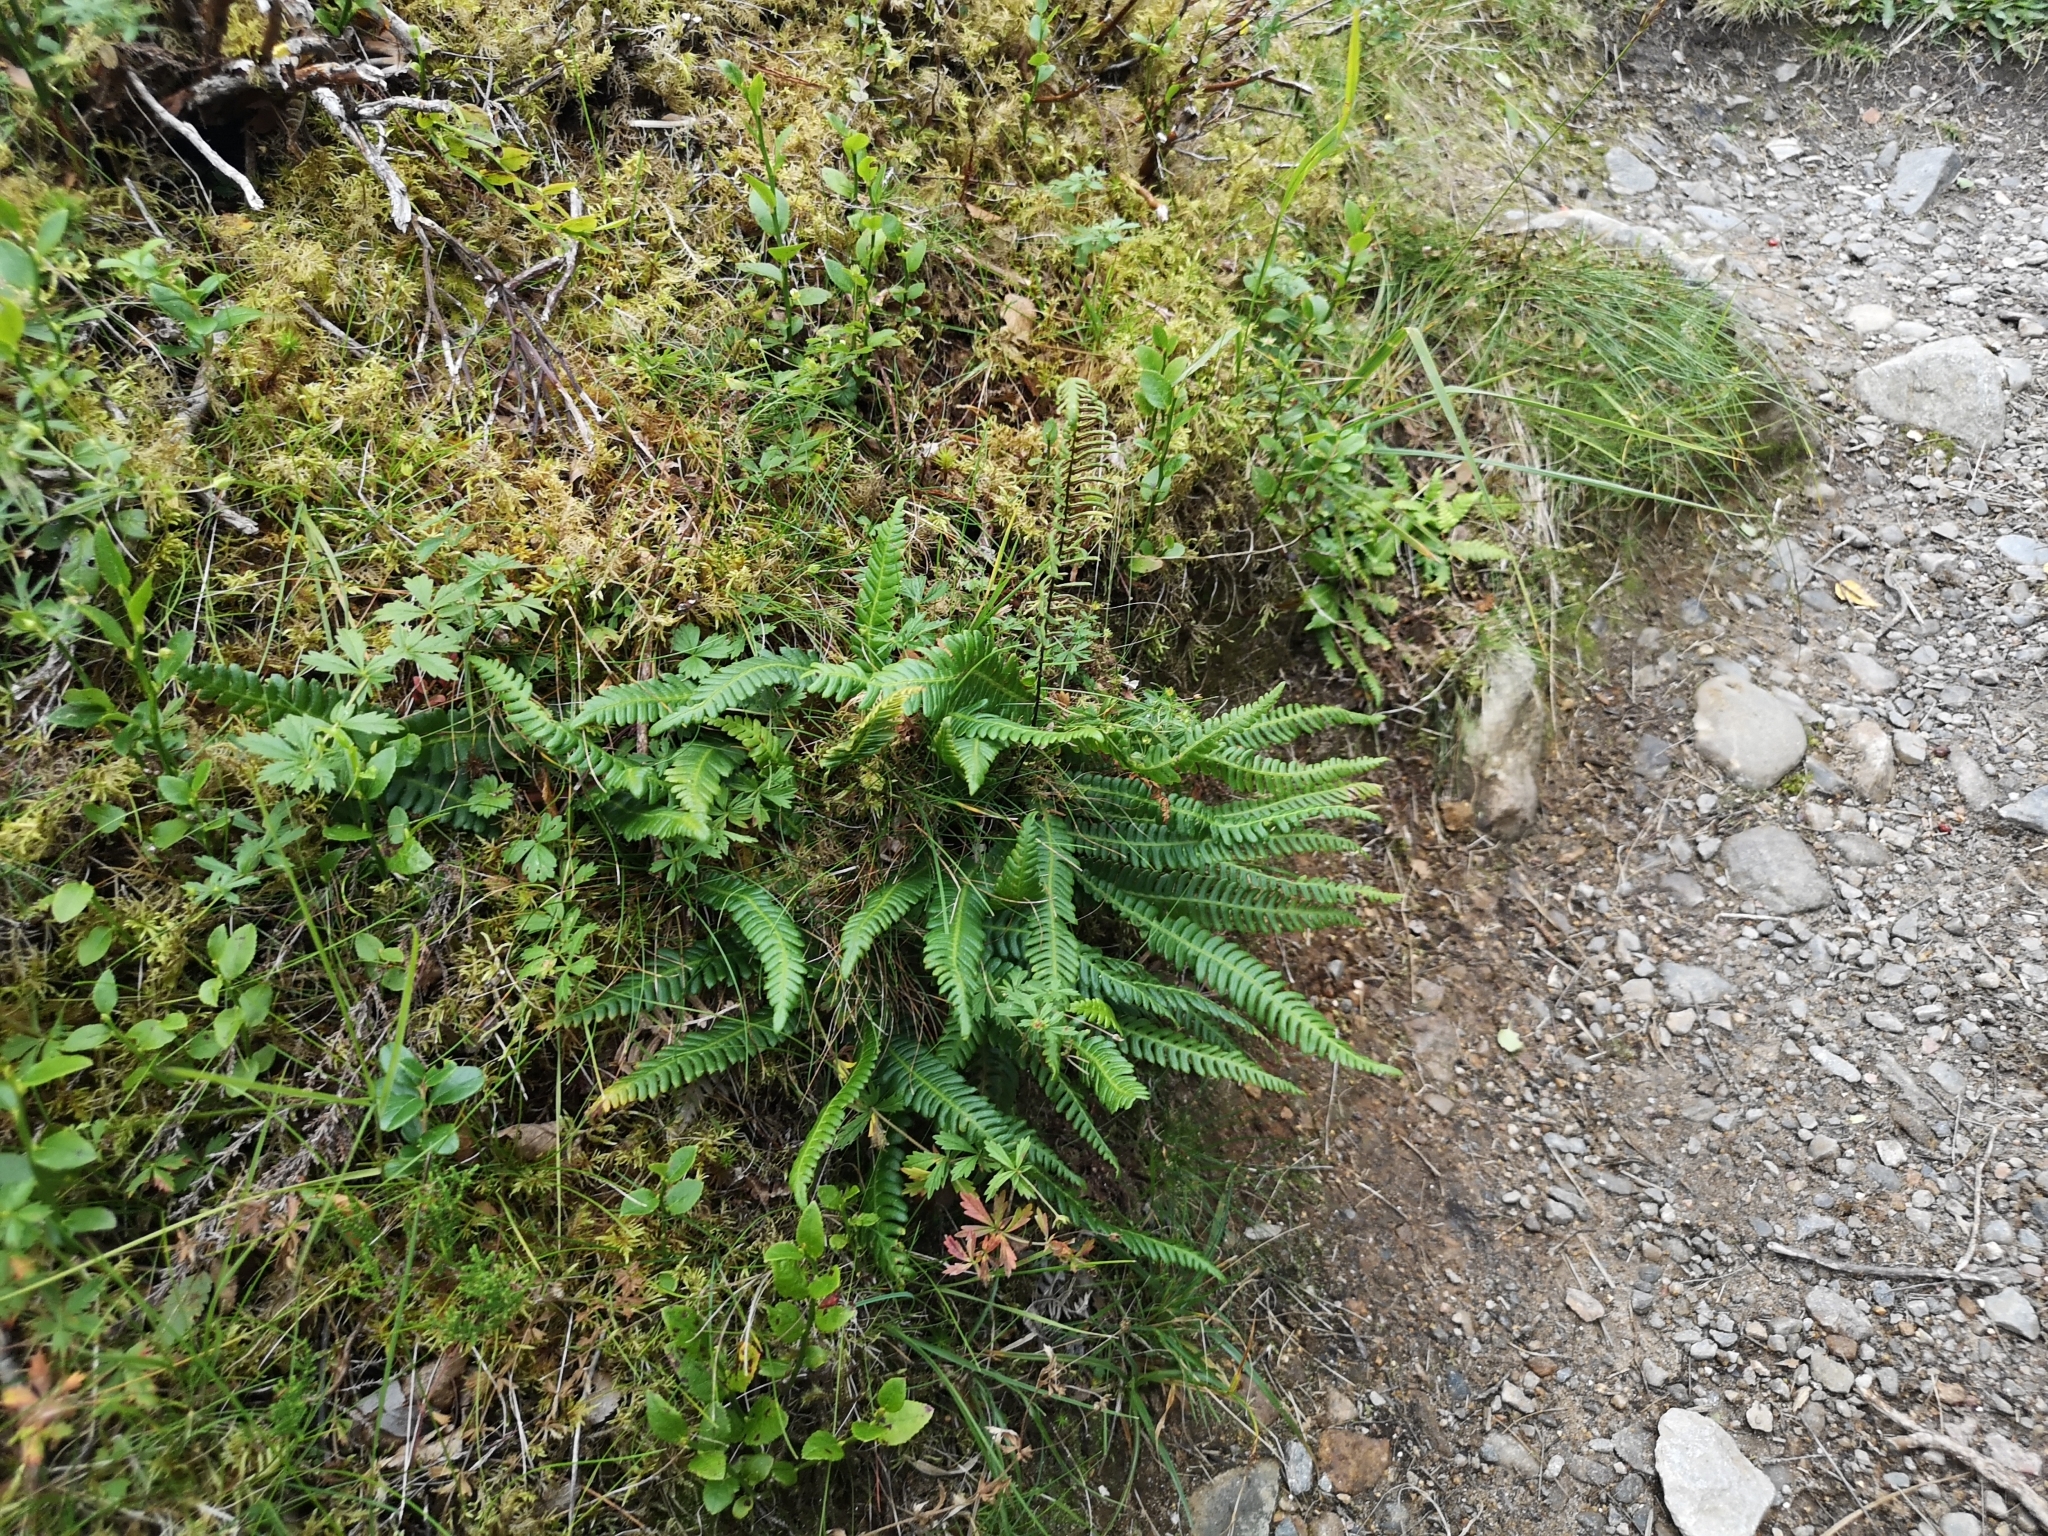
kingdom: Plantae
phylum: Tracheophyta
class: Polypodiopsida
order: Polypodiales
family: Blechnaceae
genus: Struthiopteris
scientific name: Struthiopteris spicant
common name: Deer fern
